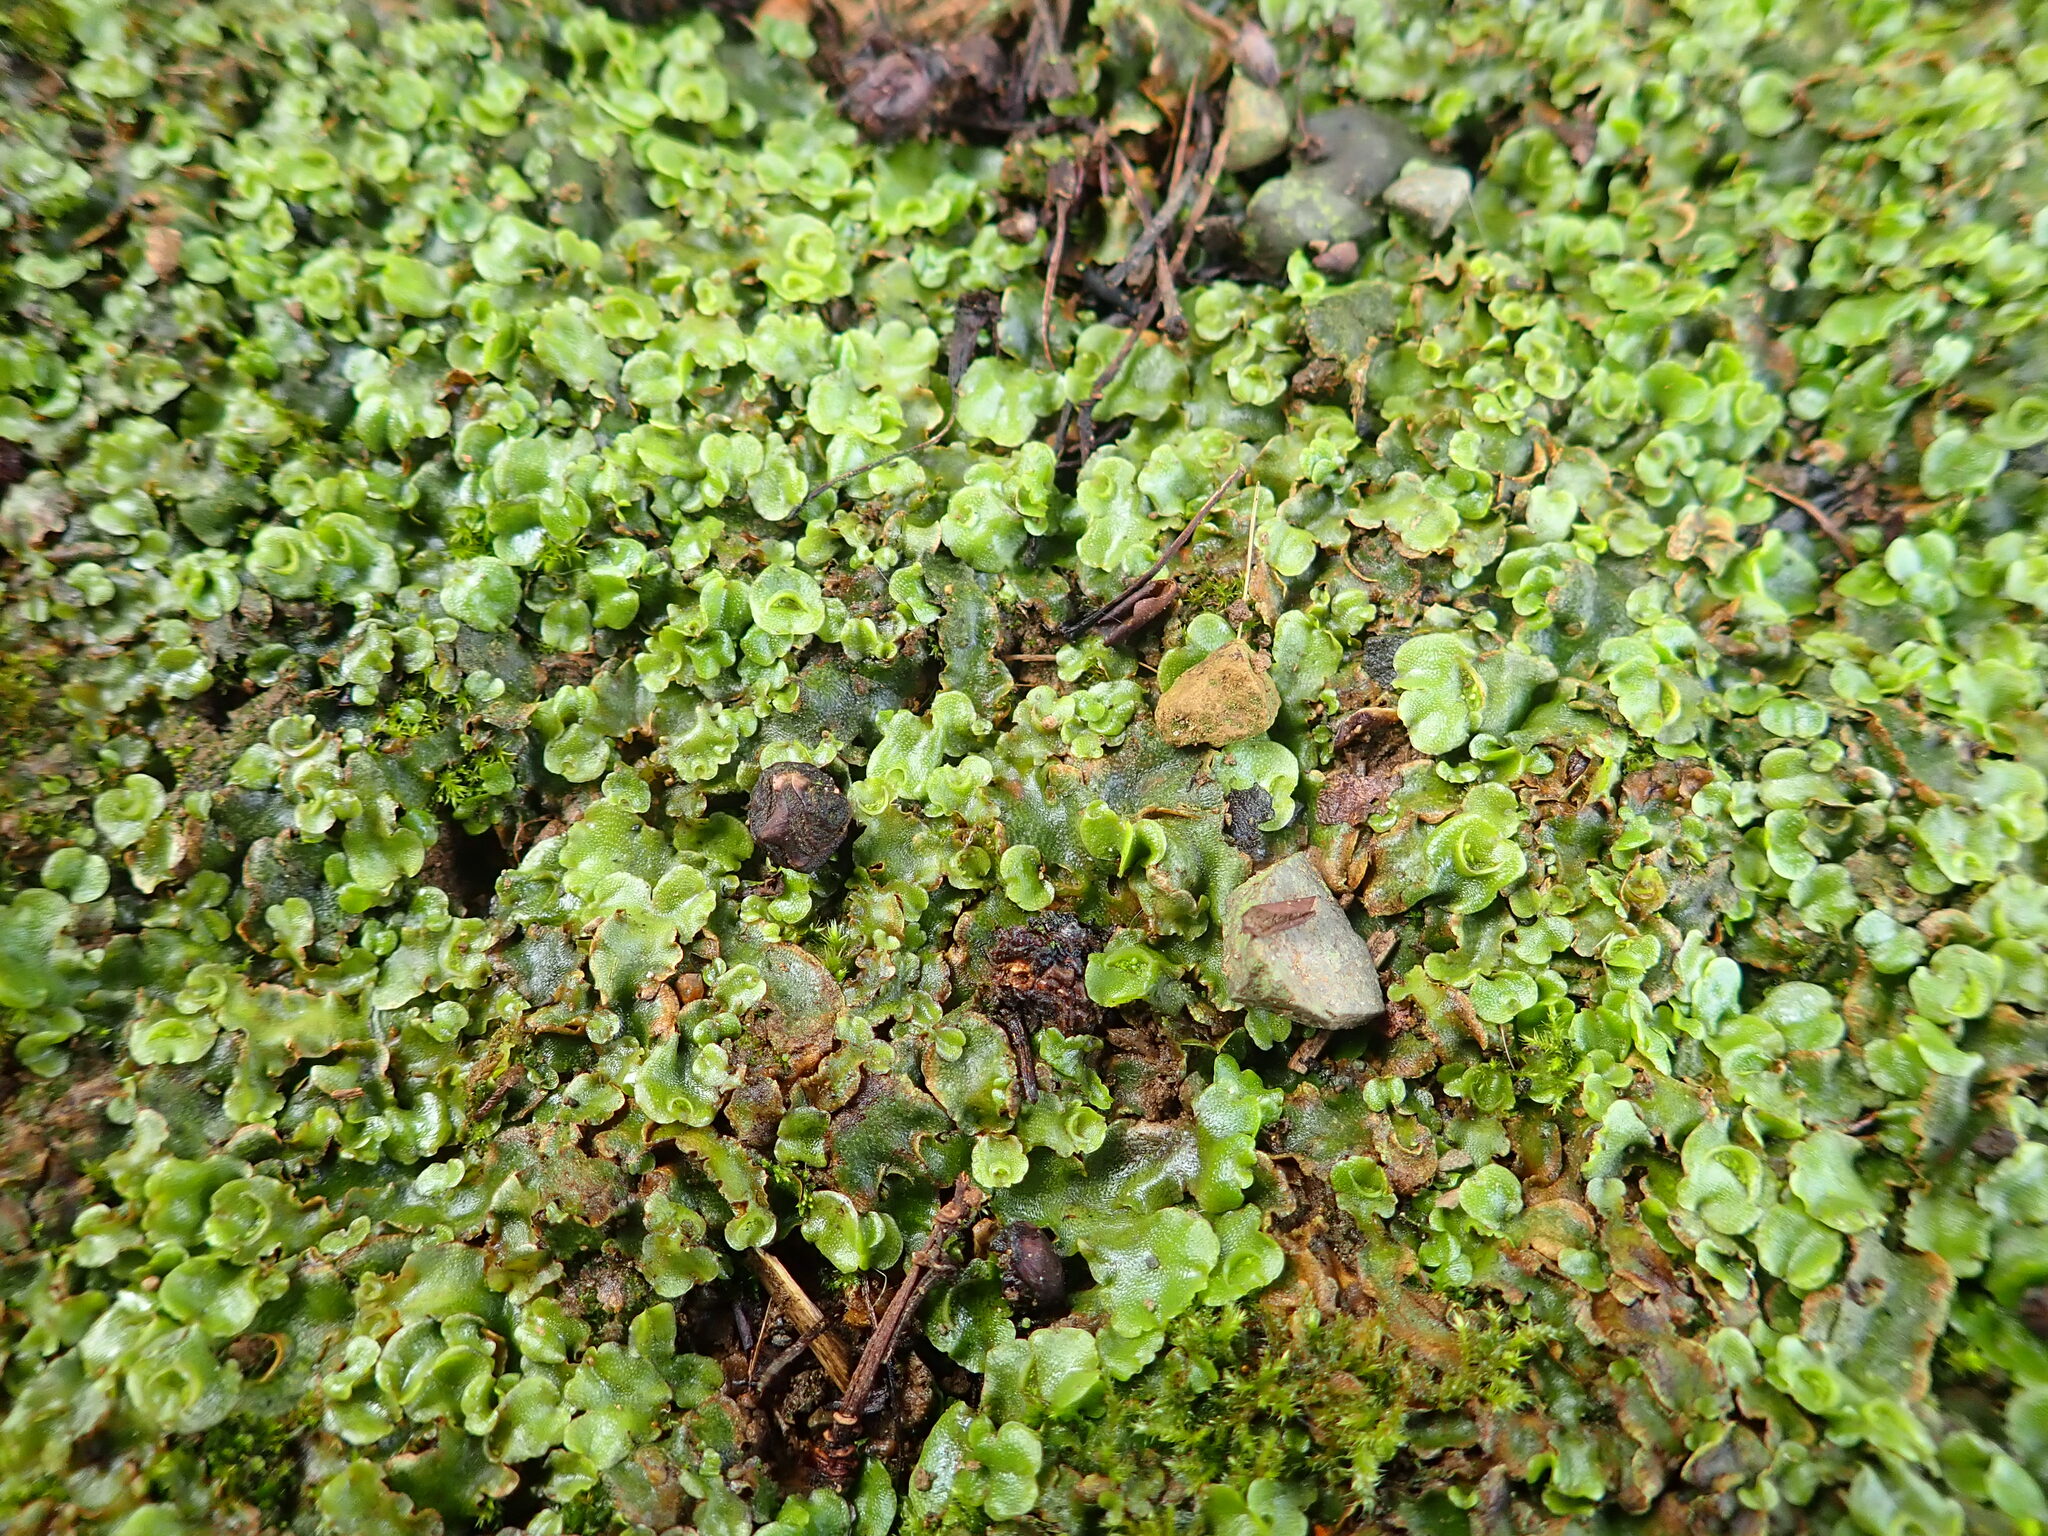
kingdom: Plantae
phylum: Marchantiophyta
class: Marchantiopsida
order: Lunulariales
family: Lunulariaceae
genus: Lunularia
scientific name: Lunularia cruciata
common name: Crescent-cup liverwort
